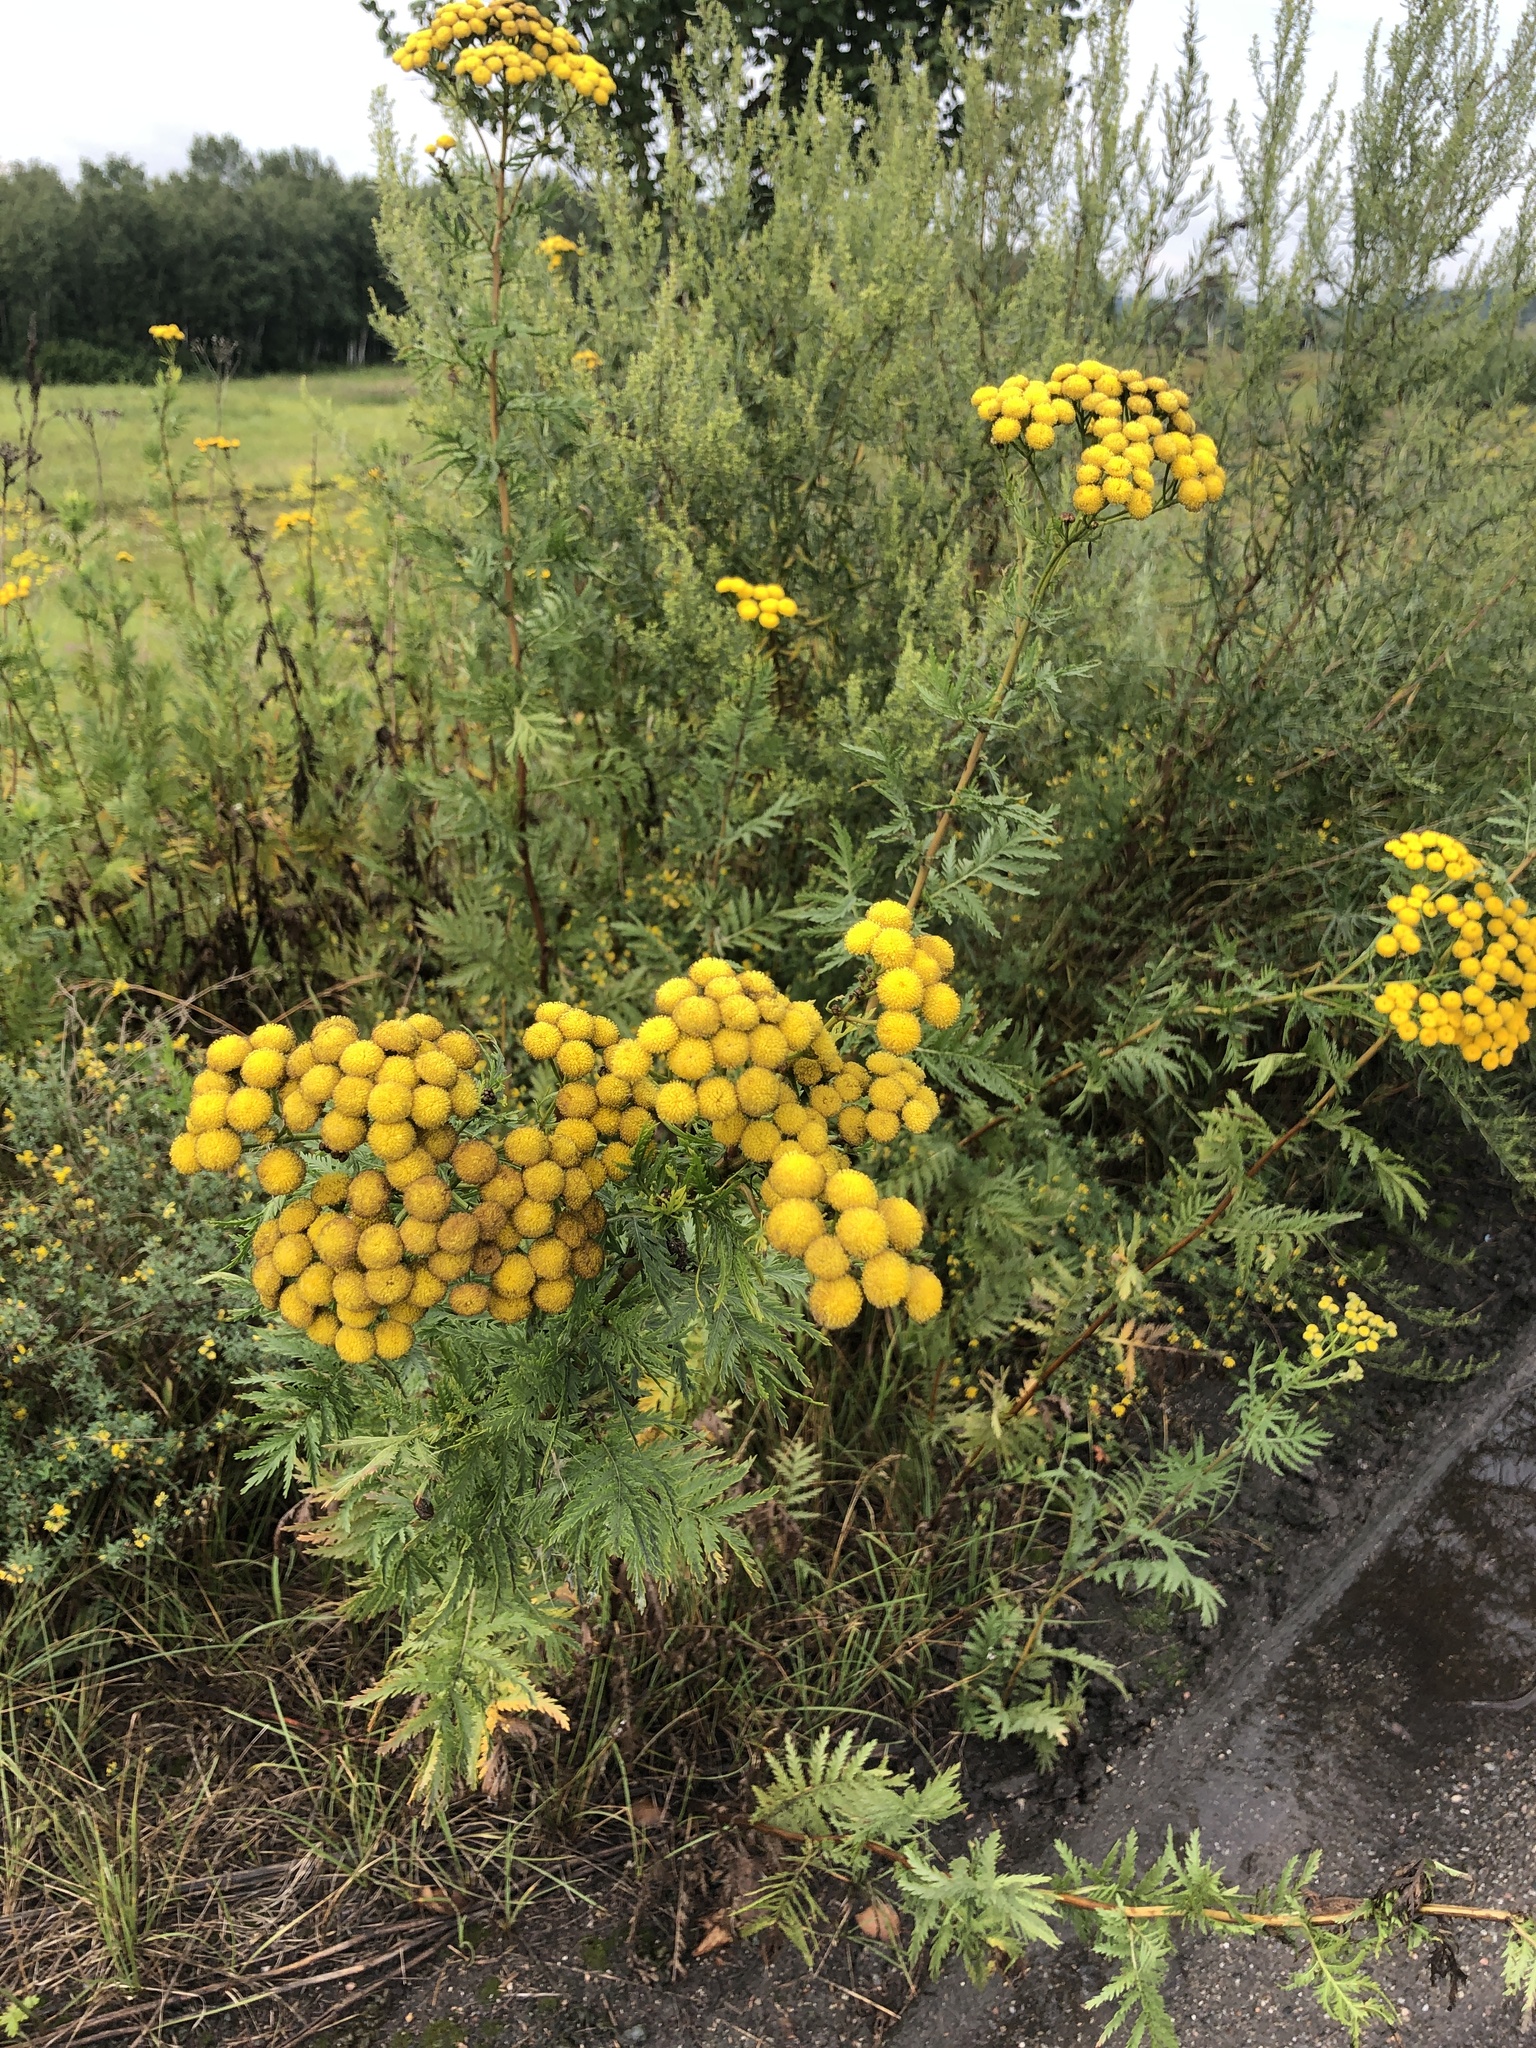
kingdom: Plantae
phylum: Tracheophyta
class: Magnoliopsida
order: Asterales
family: Asteraceae
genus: Tanacetum
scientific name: Tanacetum vulgare
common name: Common tansy
